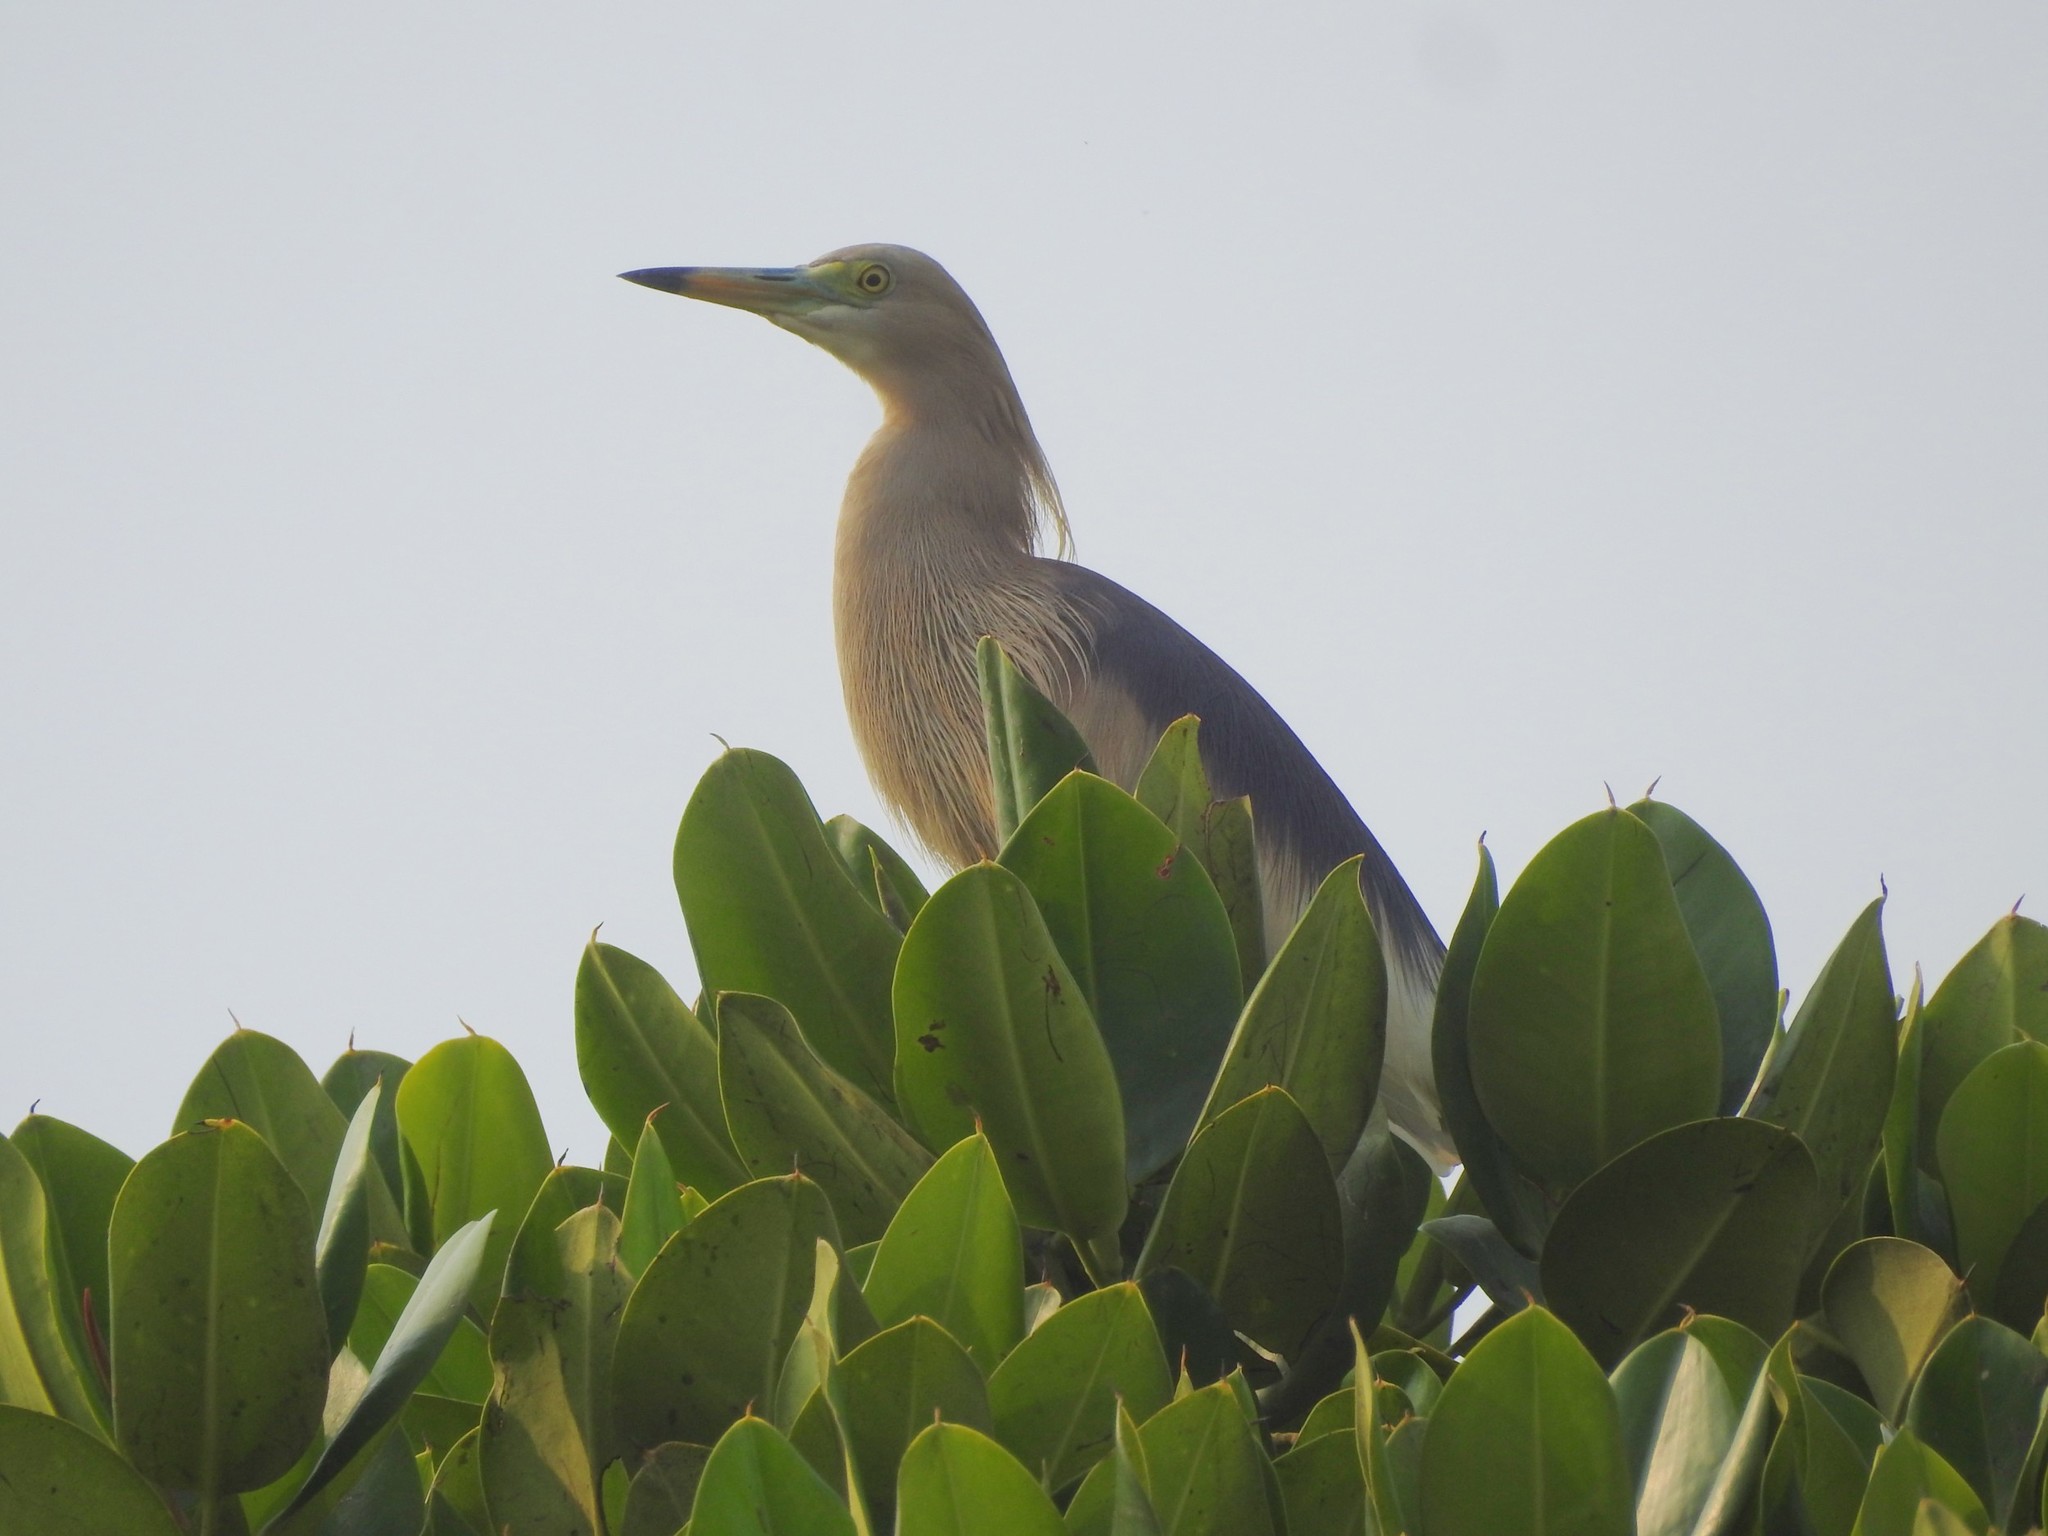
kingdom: Animalia
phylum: Chordata
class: Aves
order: Pelecaniformes
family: Ardeidae
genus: Ardeola
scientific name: Ardeola grayii
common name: Indian pond heron
